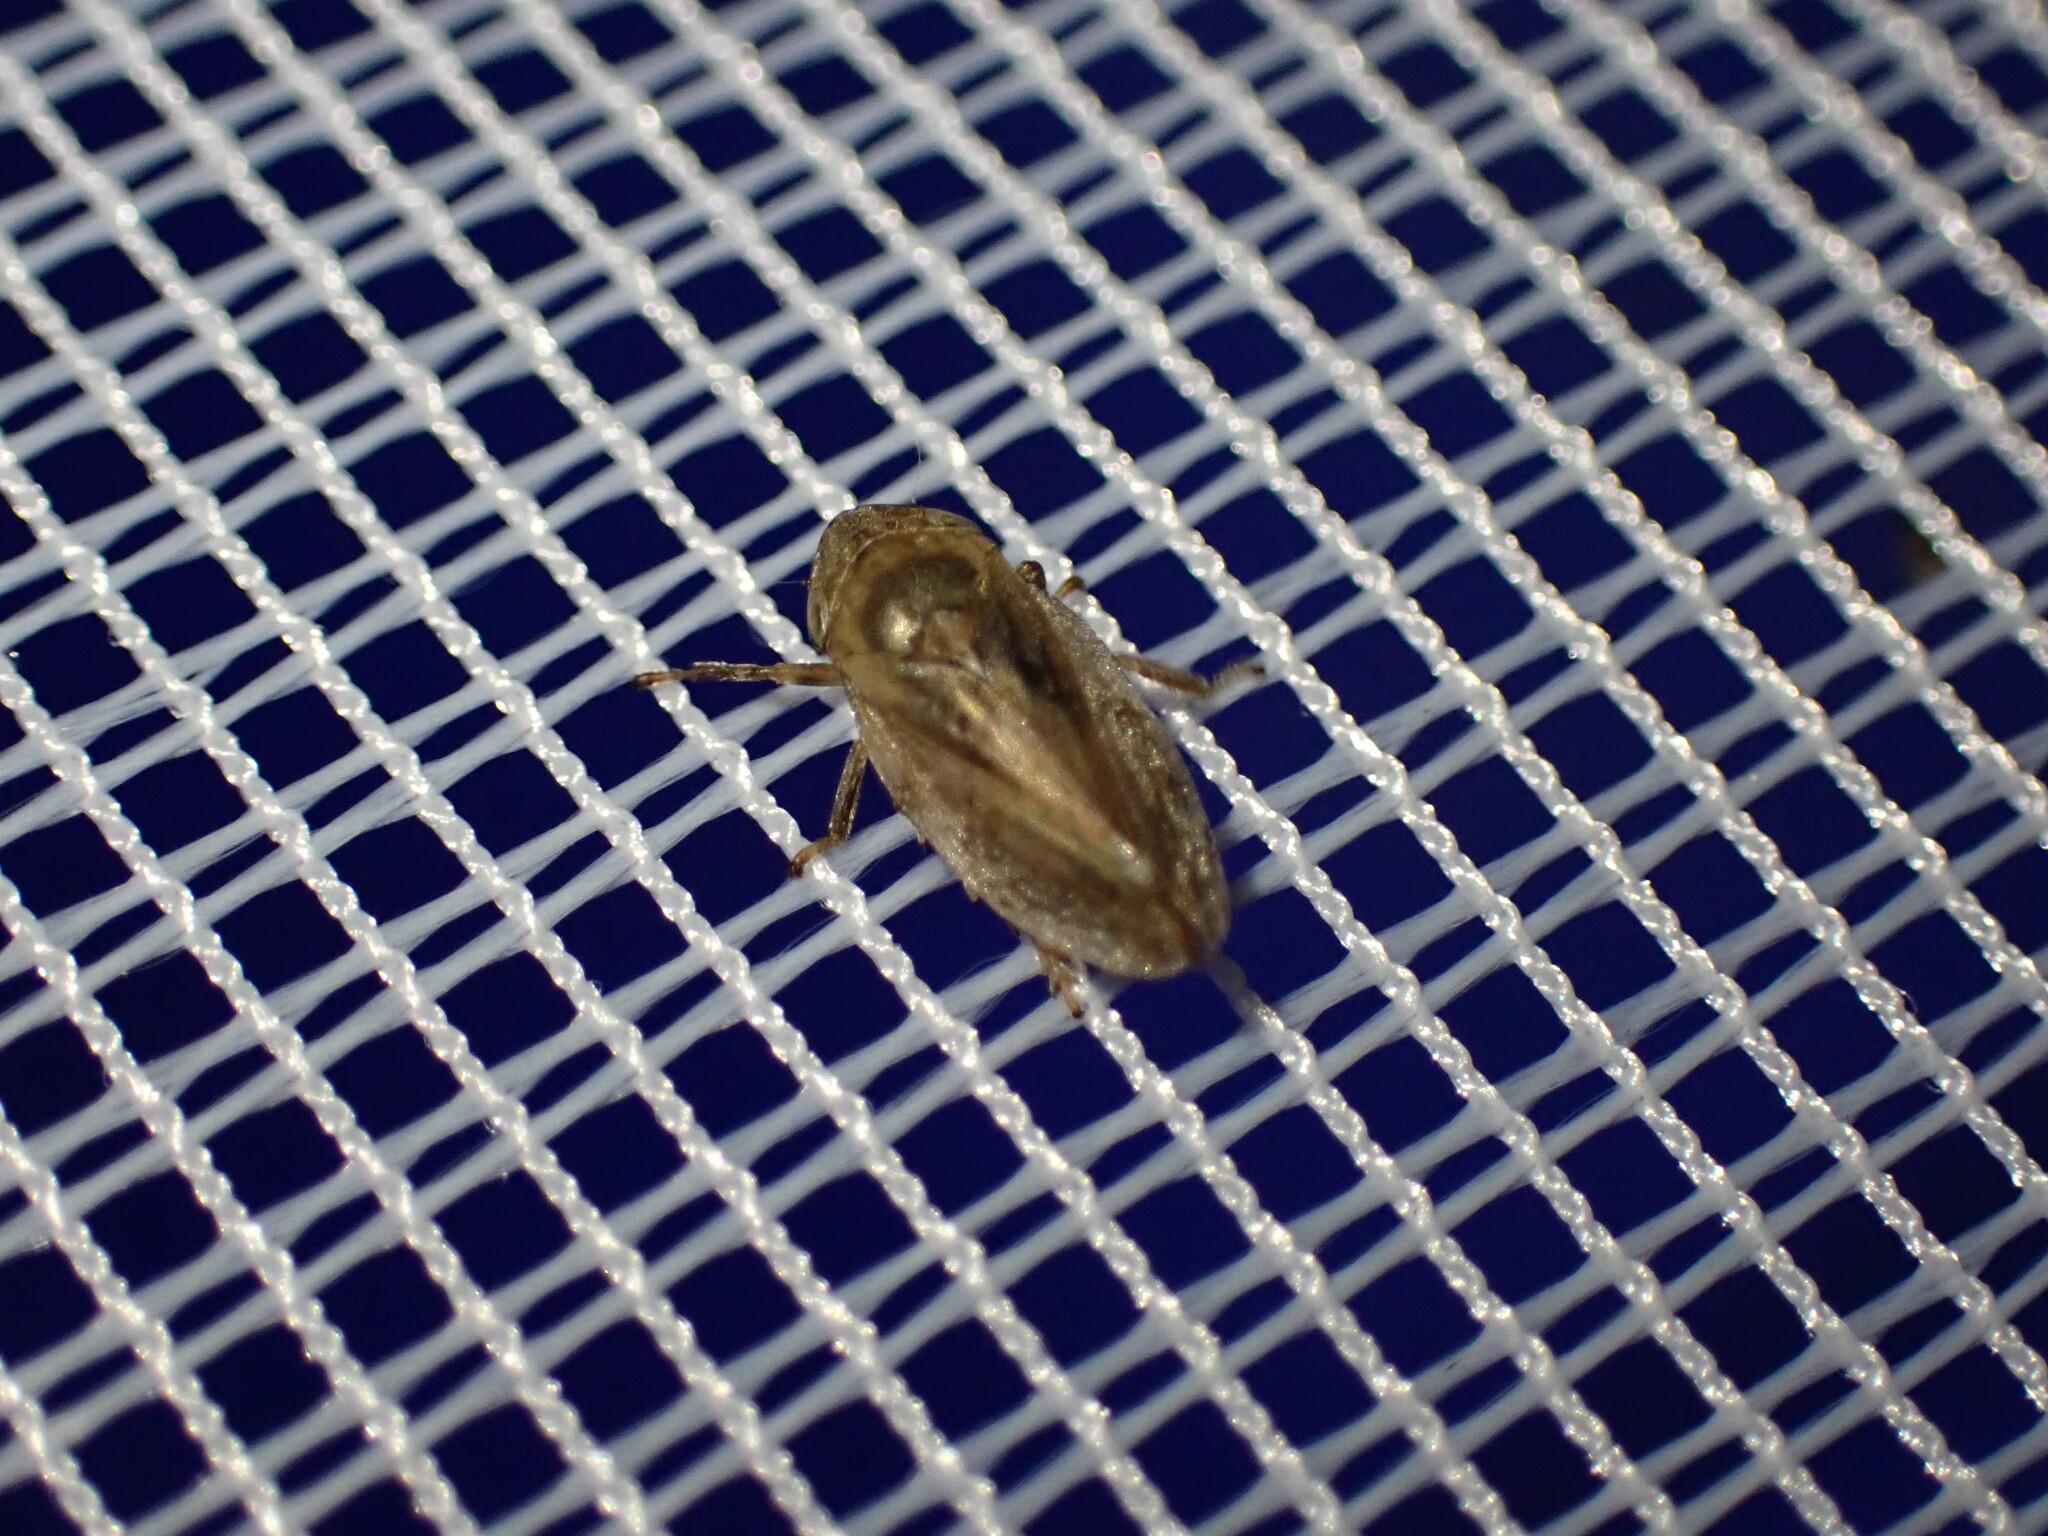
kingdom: Animalia
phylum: Arthropoda
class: Insecta
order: Hemiptera
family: Aphrophoridae
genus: Philaenus
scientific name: Philaenus spumarius
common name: Meadow spittlebug
